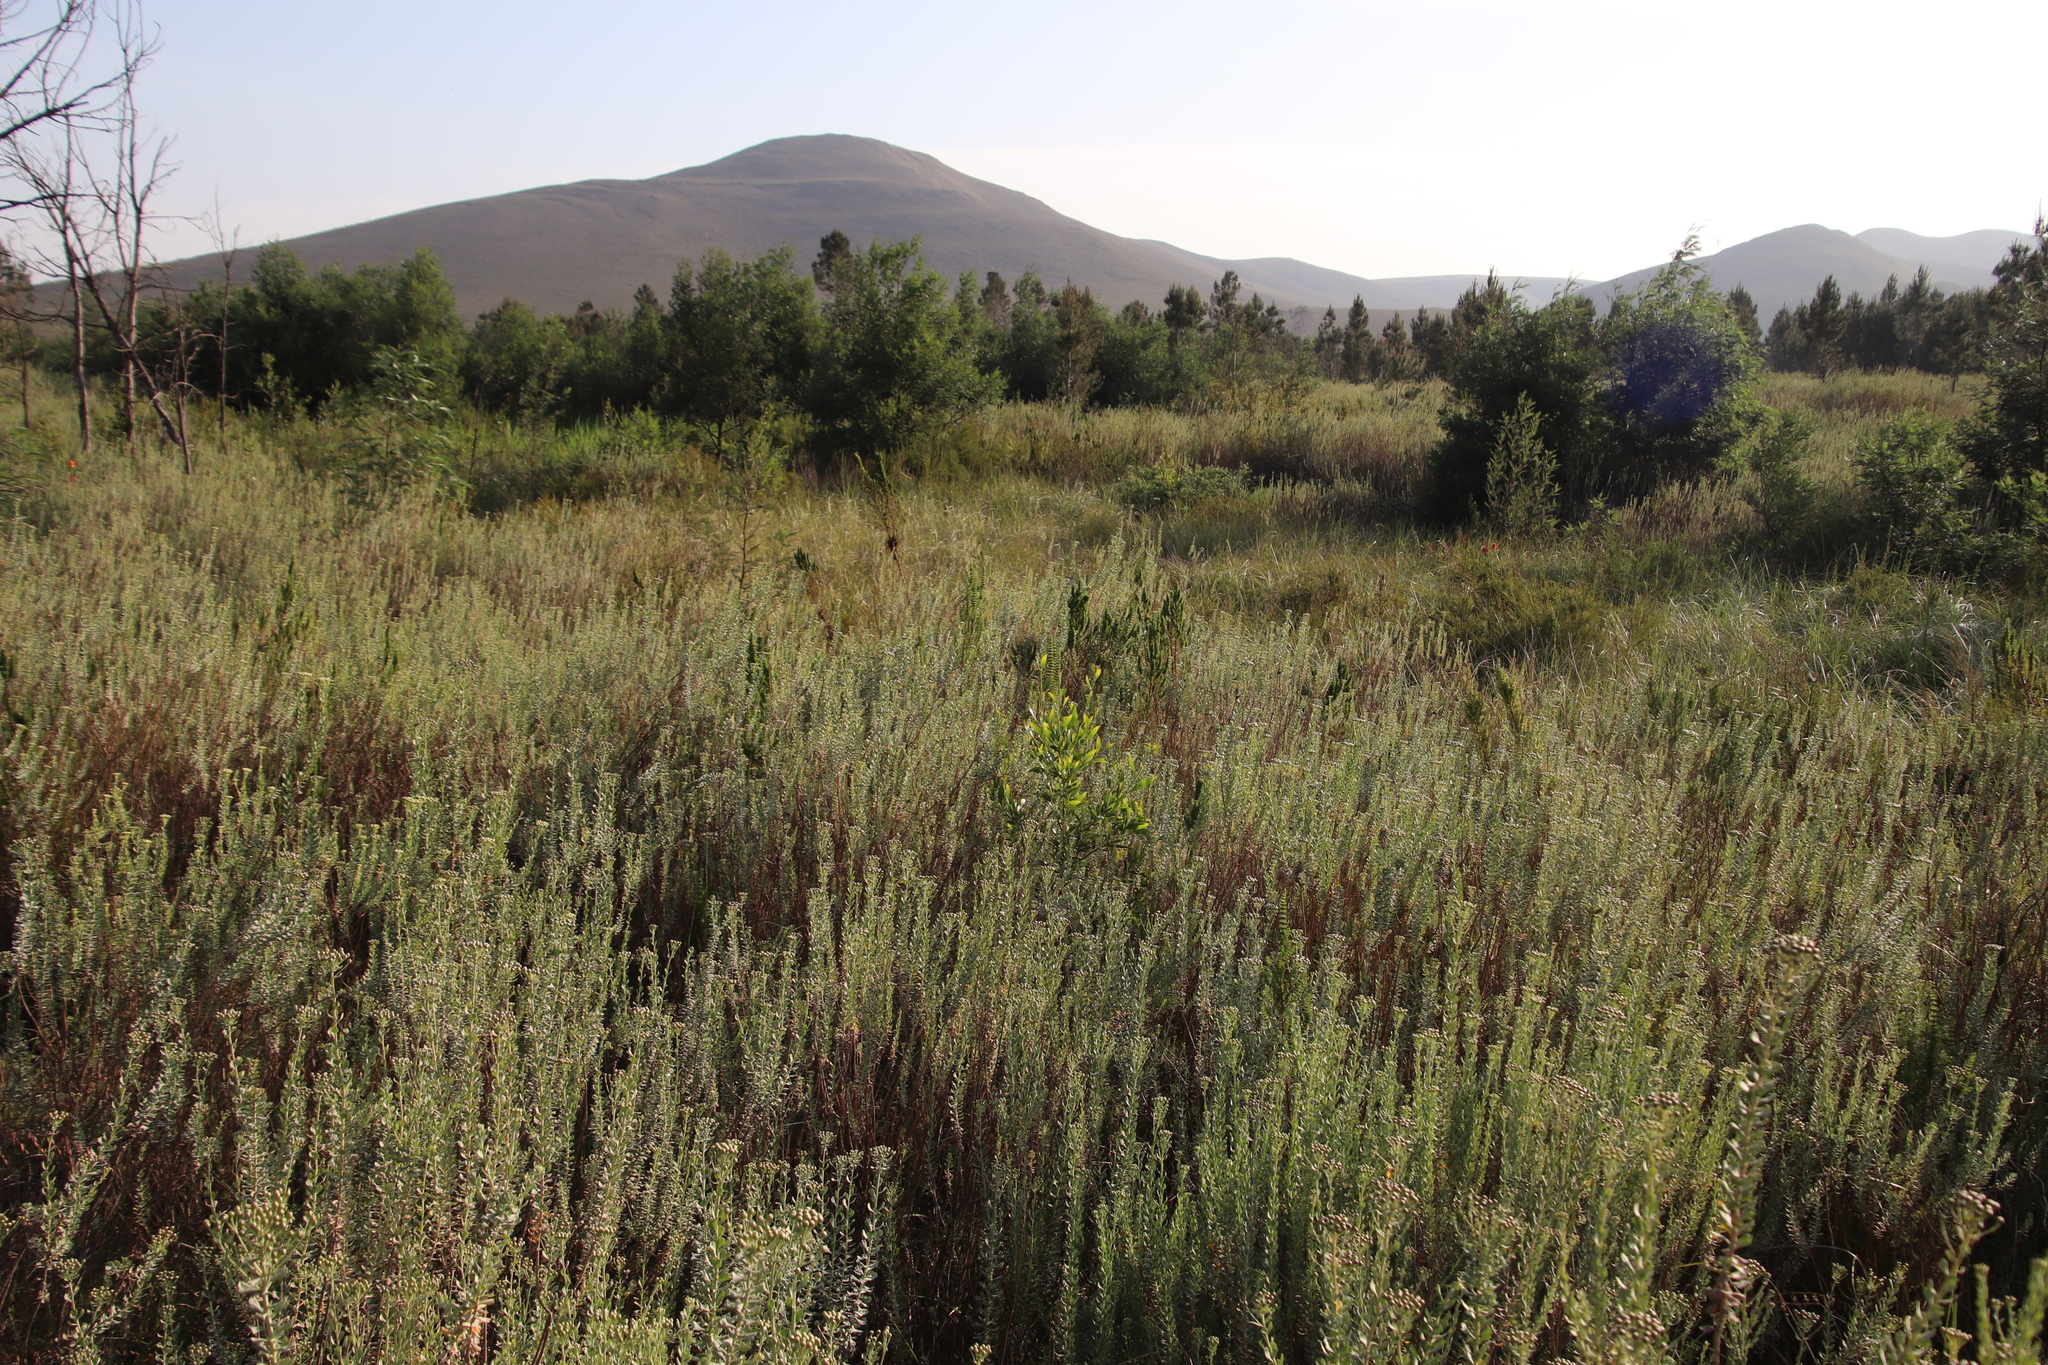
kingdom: Plantae
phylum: Tracheophyta
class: Magnoliopsida
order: Fabales
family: Fabaceae
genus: Acacia
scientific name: Acacia melanoxylon
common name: Blackwood
